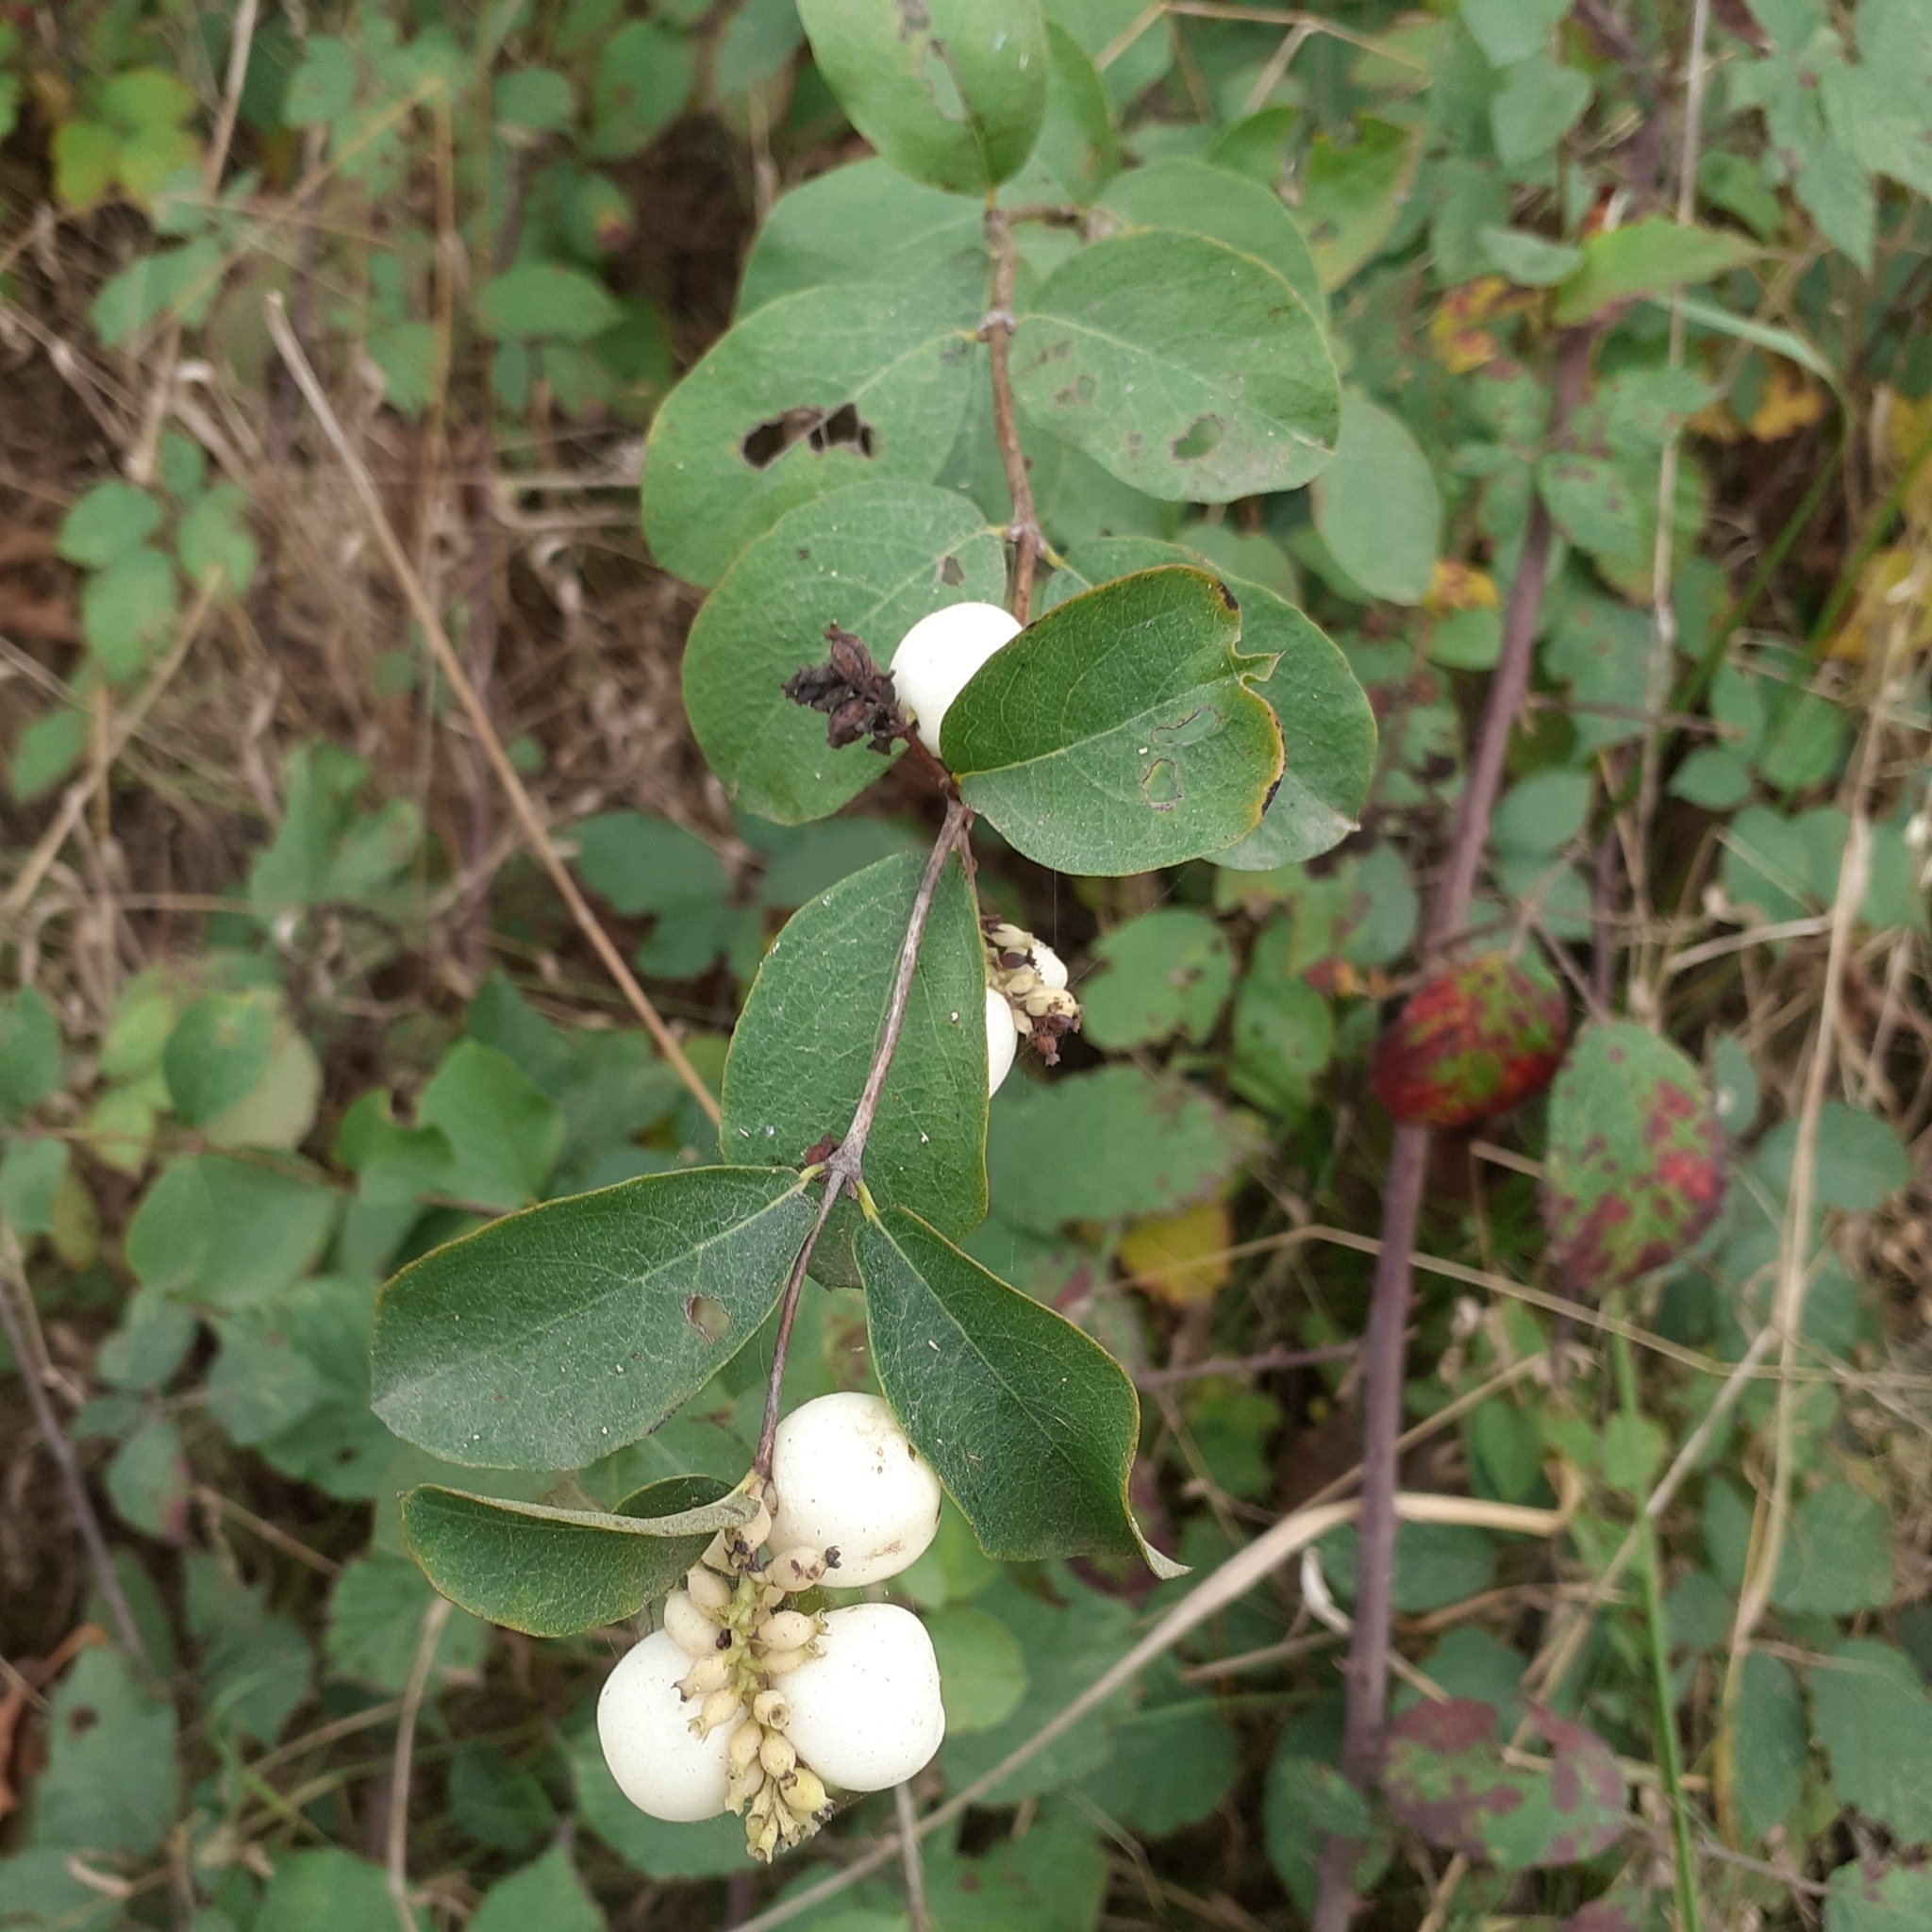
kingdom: Plantae
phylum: Tracheophyta
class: Magnoliopsida
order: Dipsacales
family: Caprifoliaceae
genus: Symphoricarpos
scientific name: Symphoricarpos albus
